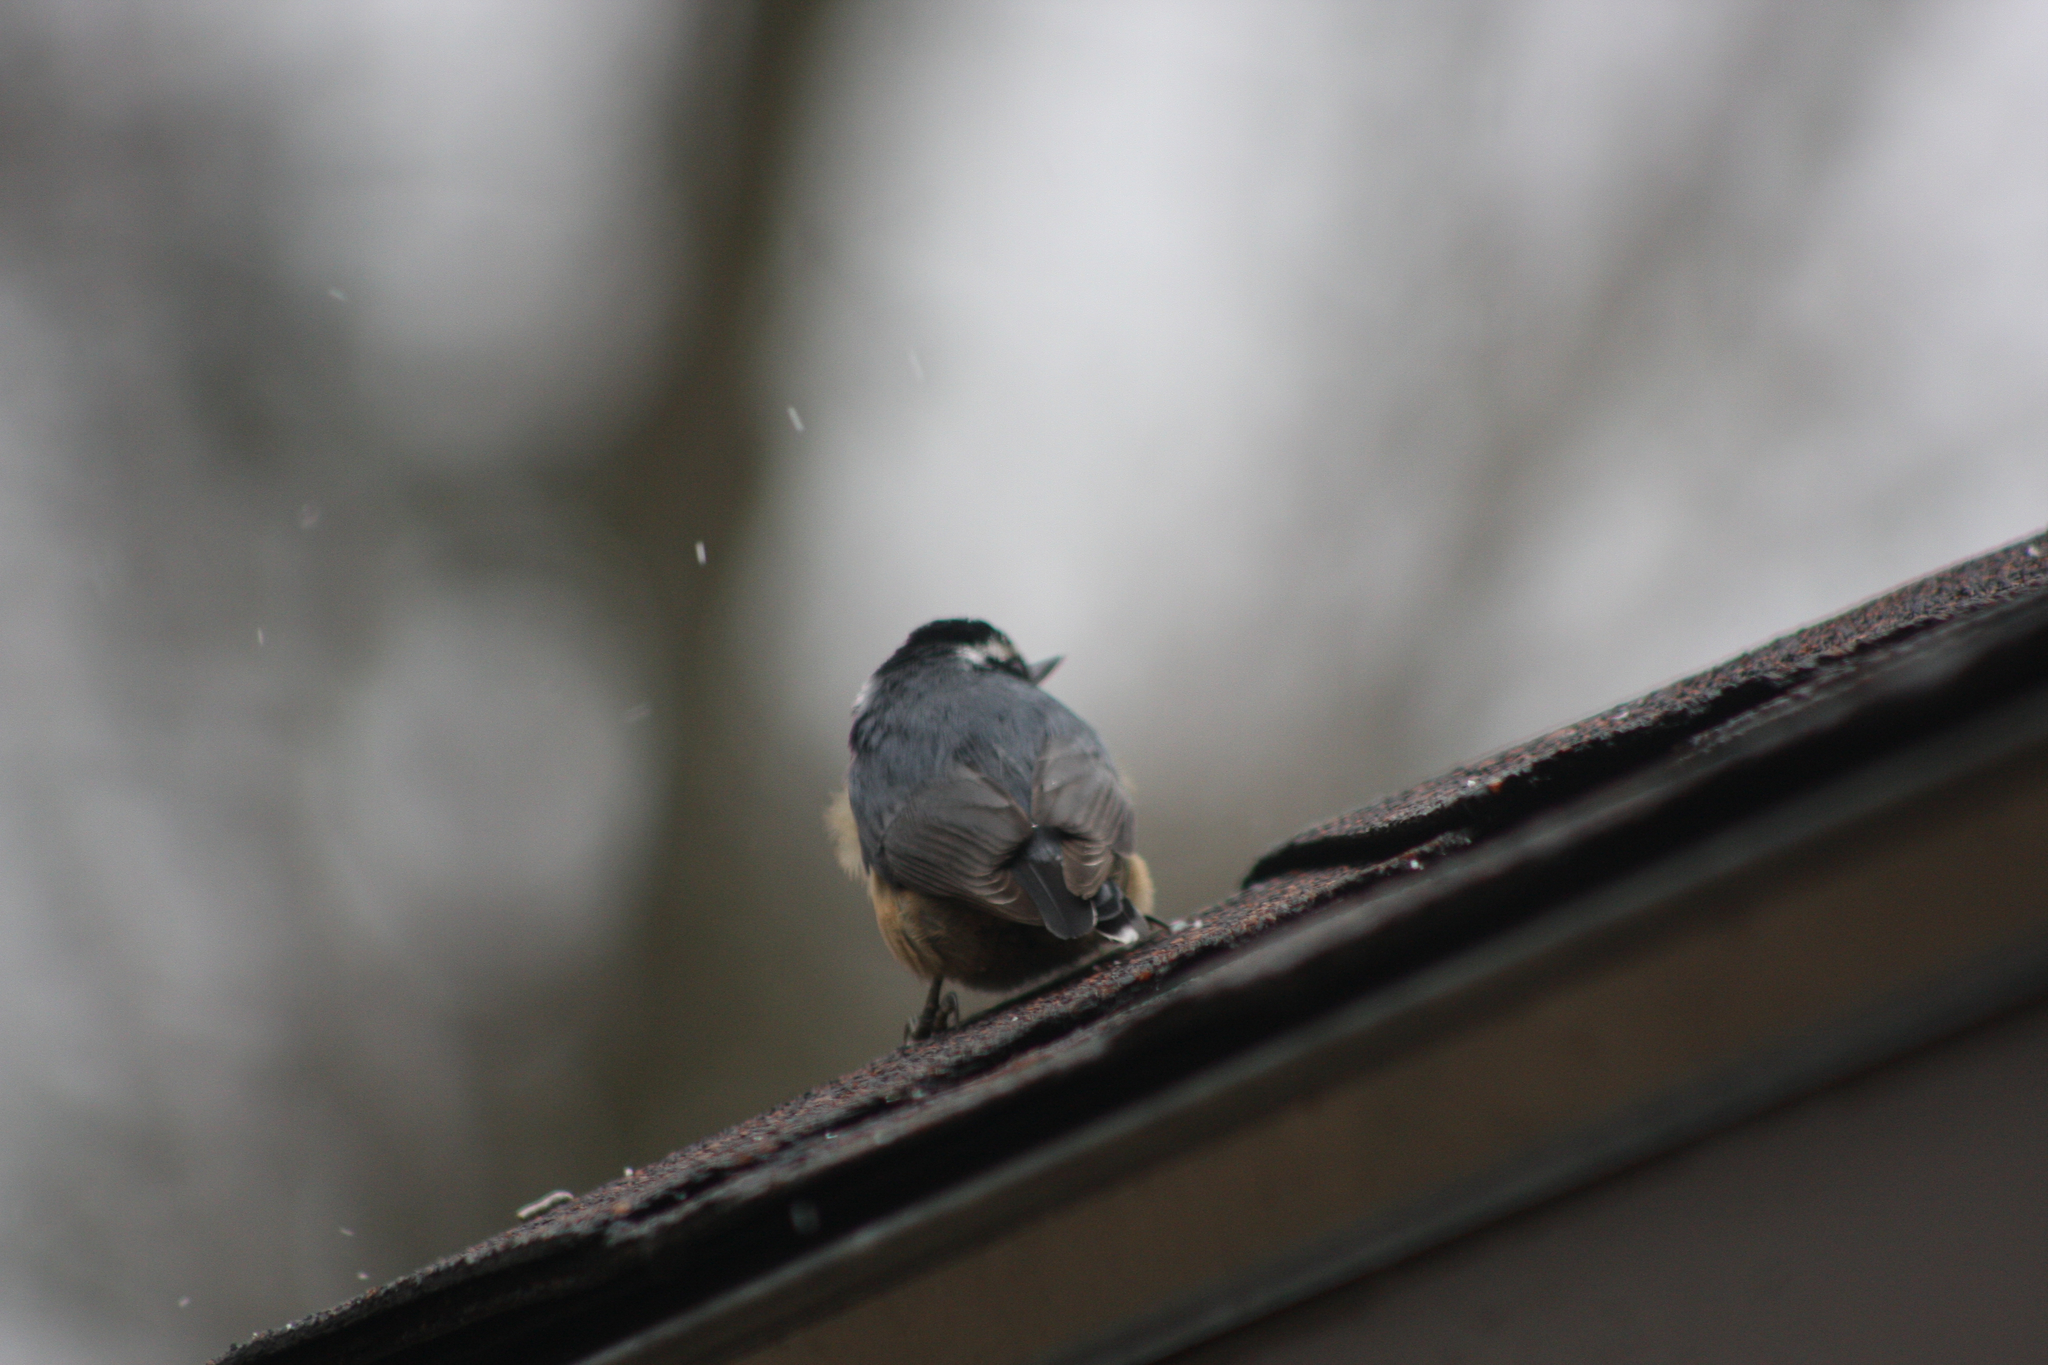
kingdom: Animalia
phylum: Chordata
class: Aves
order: Passeriformes
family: Sittidae
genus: Sitta
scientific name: Sitta canadensis
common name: Red-breasted nuthatch
